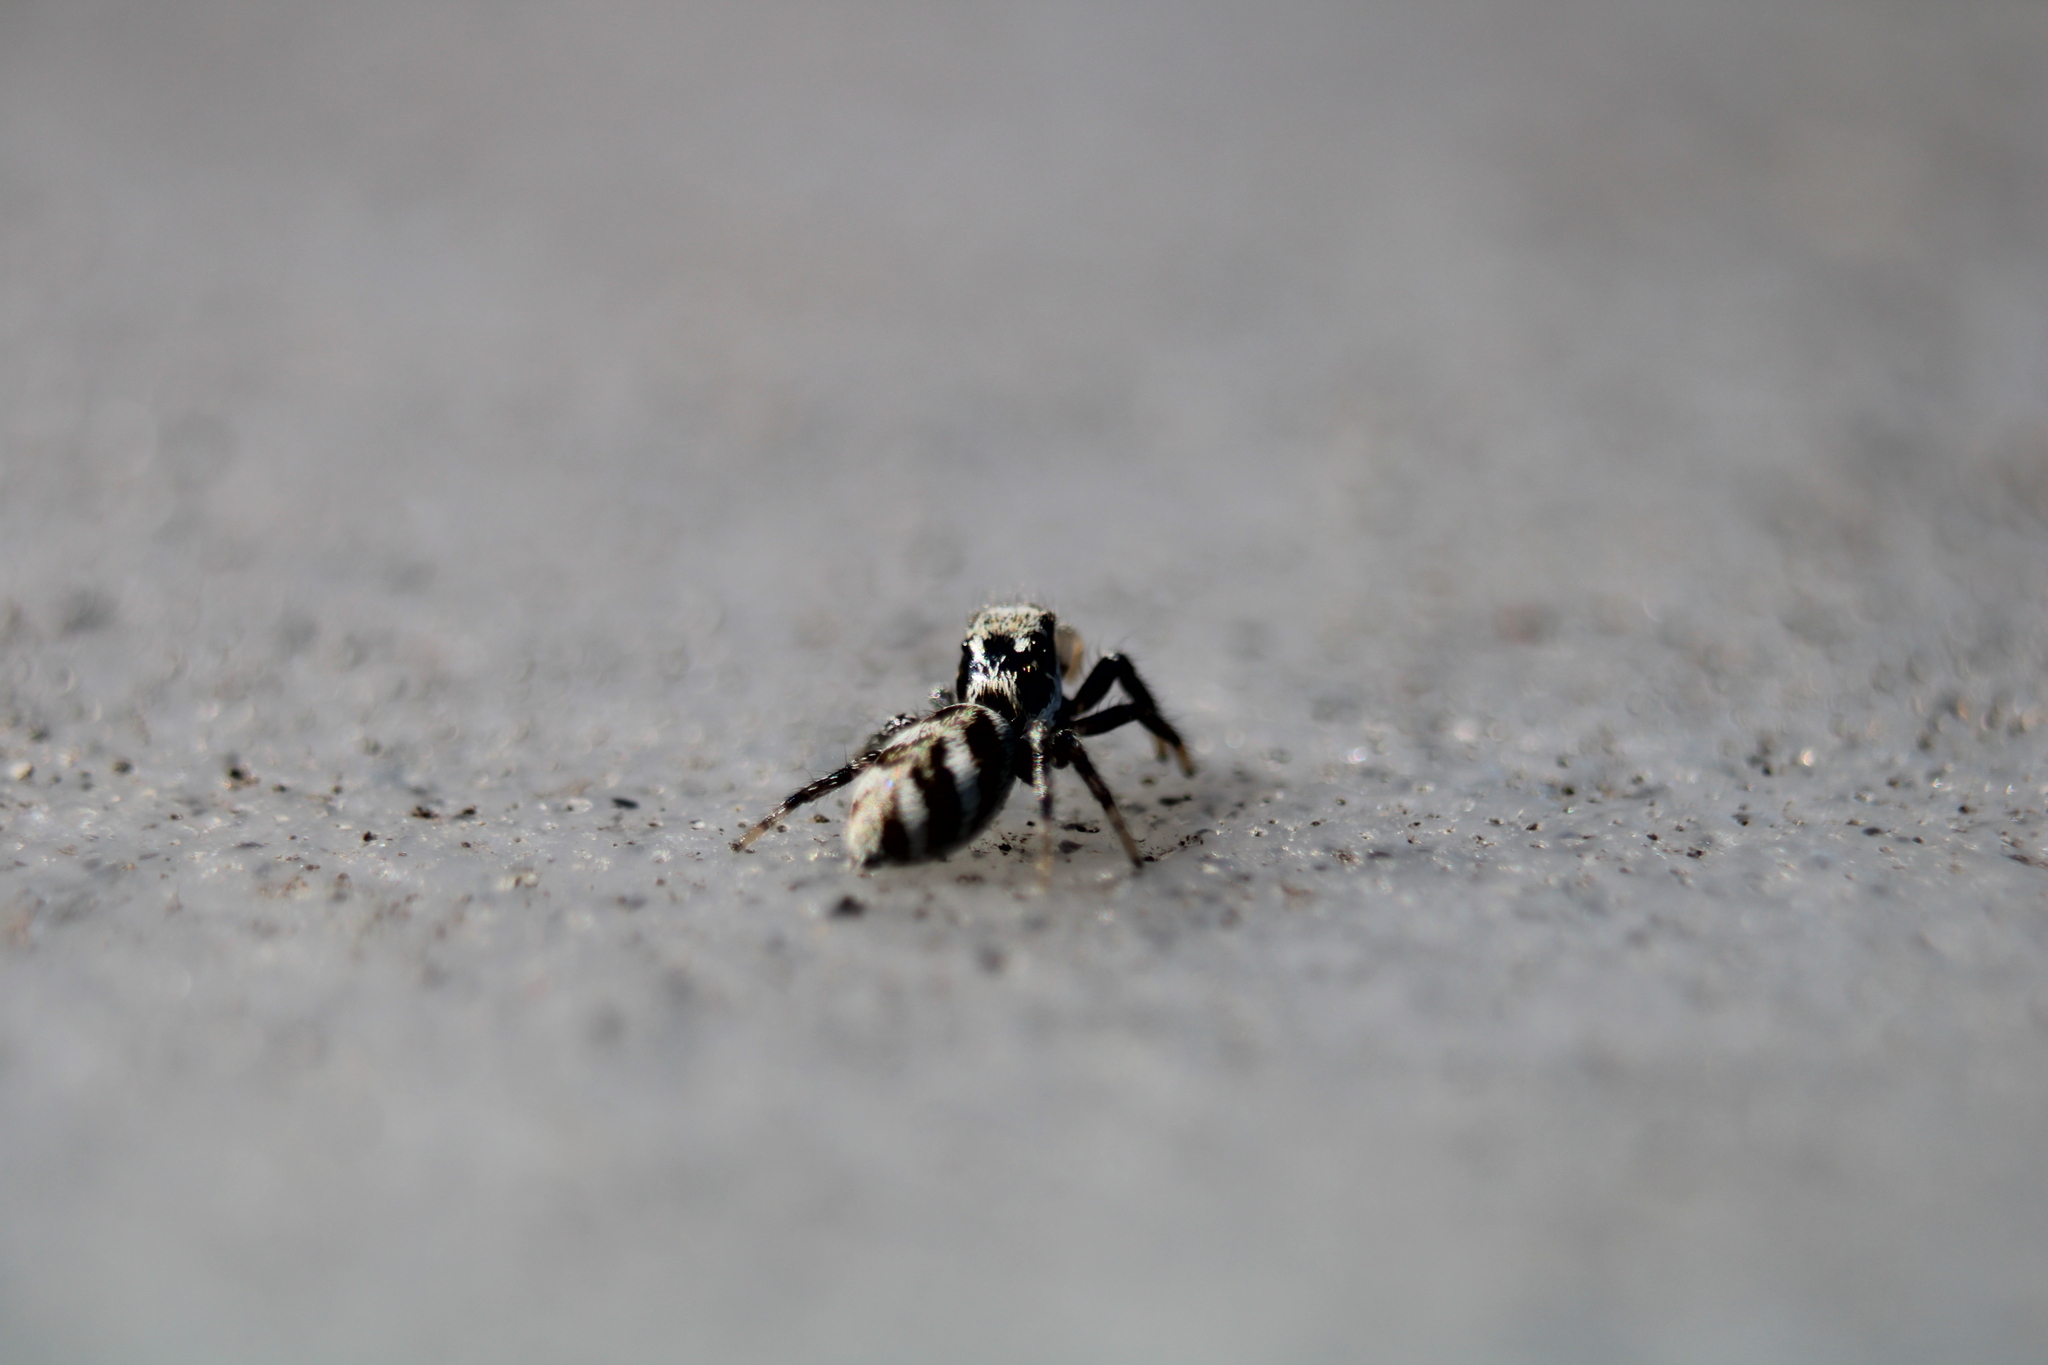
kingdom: Animalia
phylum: Arthropoda
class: Arachnida
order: Araneae
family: Salticidae
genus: Salticus
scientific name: Salticus scenicus
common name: Zebra jumper
